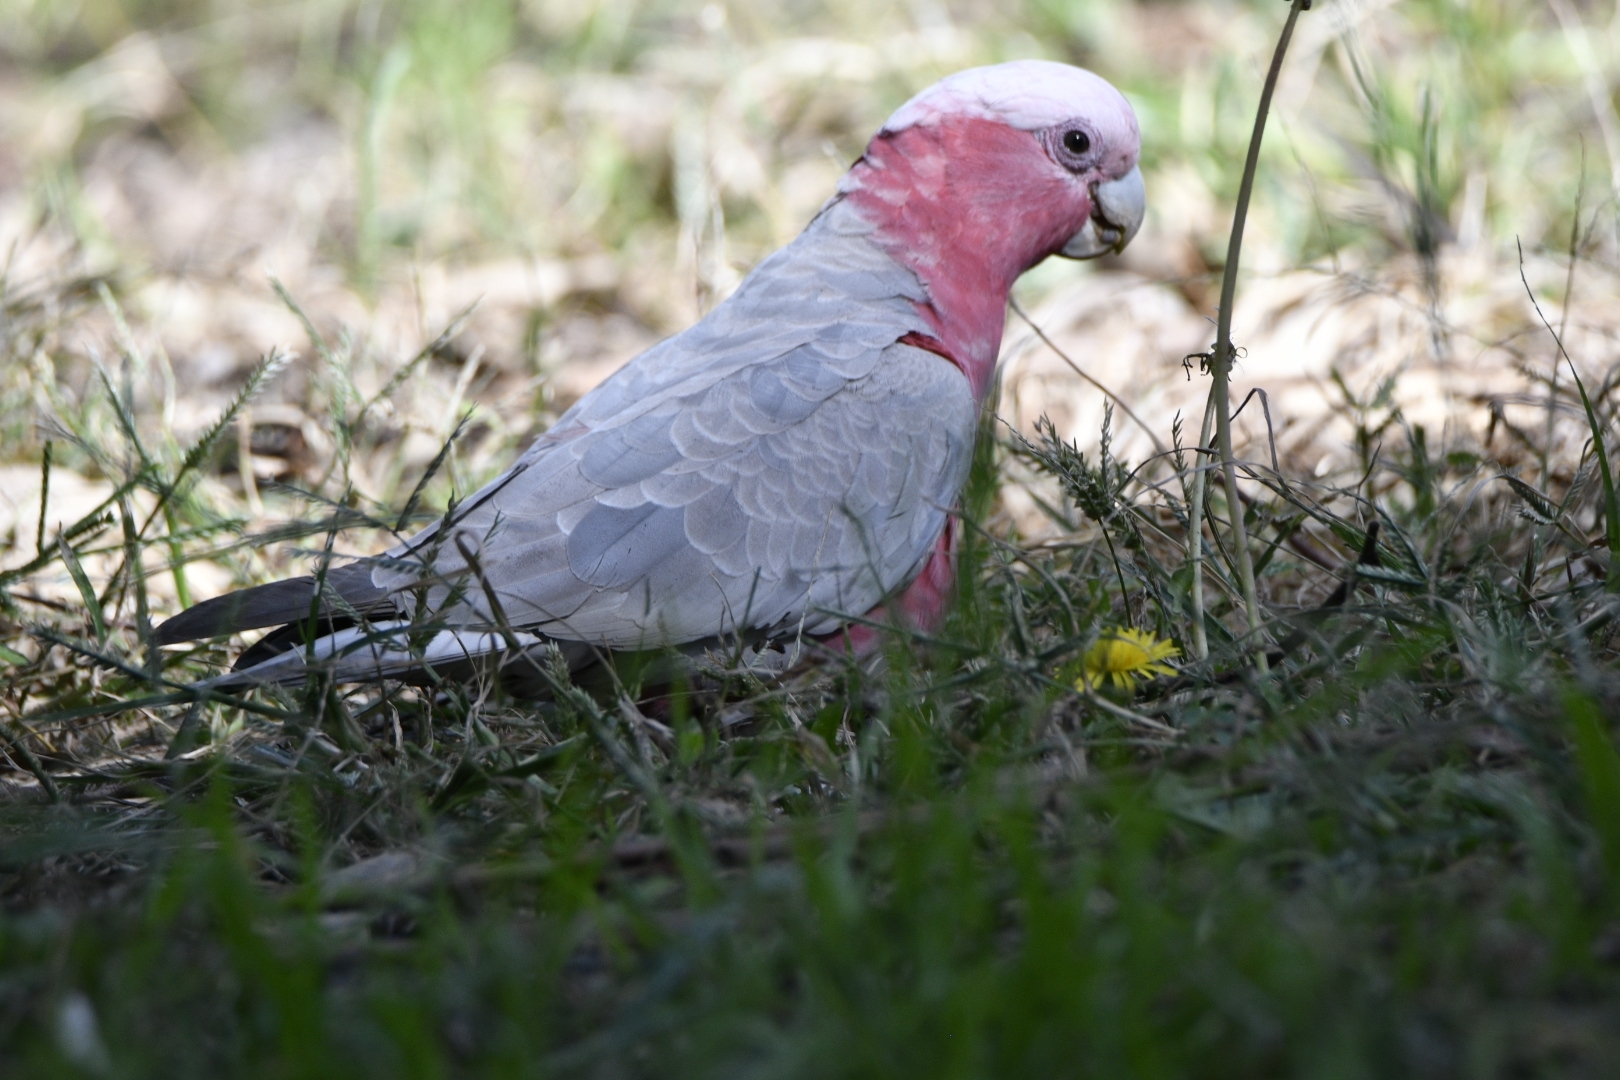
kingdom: Animalia
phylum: Chordata
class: Aves
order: Psittaciformes
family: Psittacidae
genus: Eolophus
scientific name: Eolophus roseicapilla
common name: Galah
